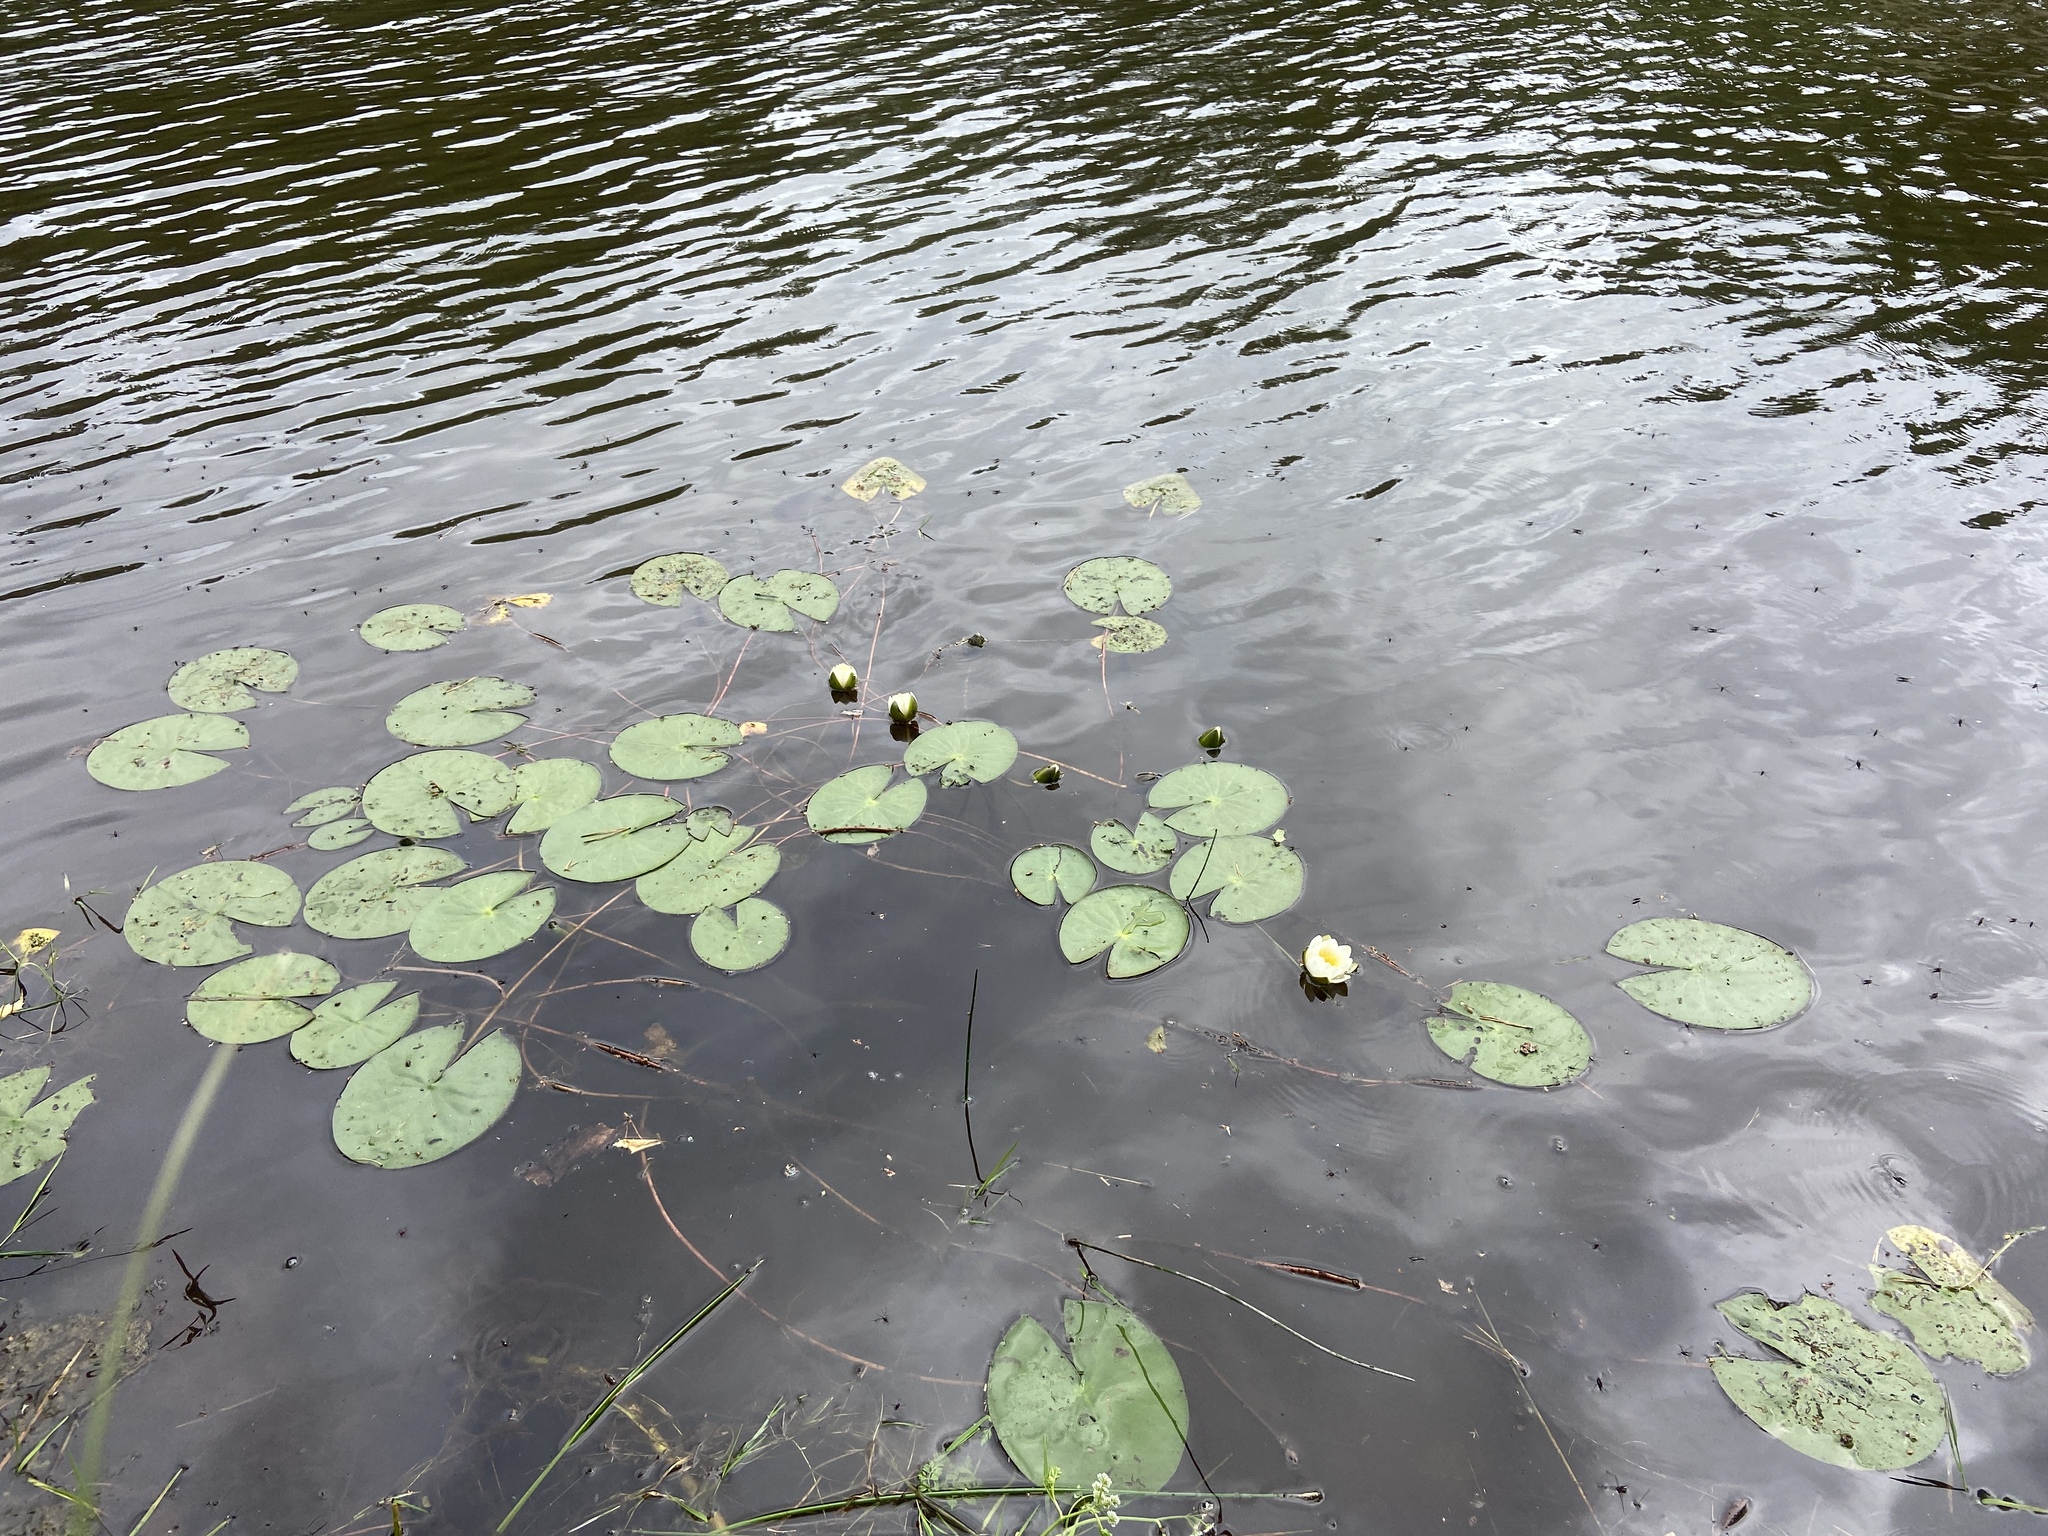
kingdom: Plantae
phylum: Tracheophyta
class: Magnoliopsida
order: Nymphaeales
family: Nymphaeaceae
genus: Nymphaea
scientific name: Nymphaea candida
